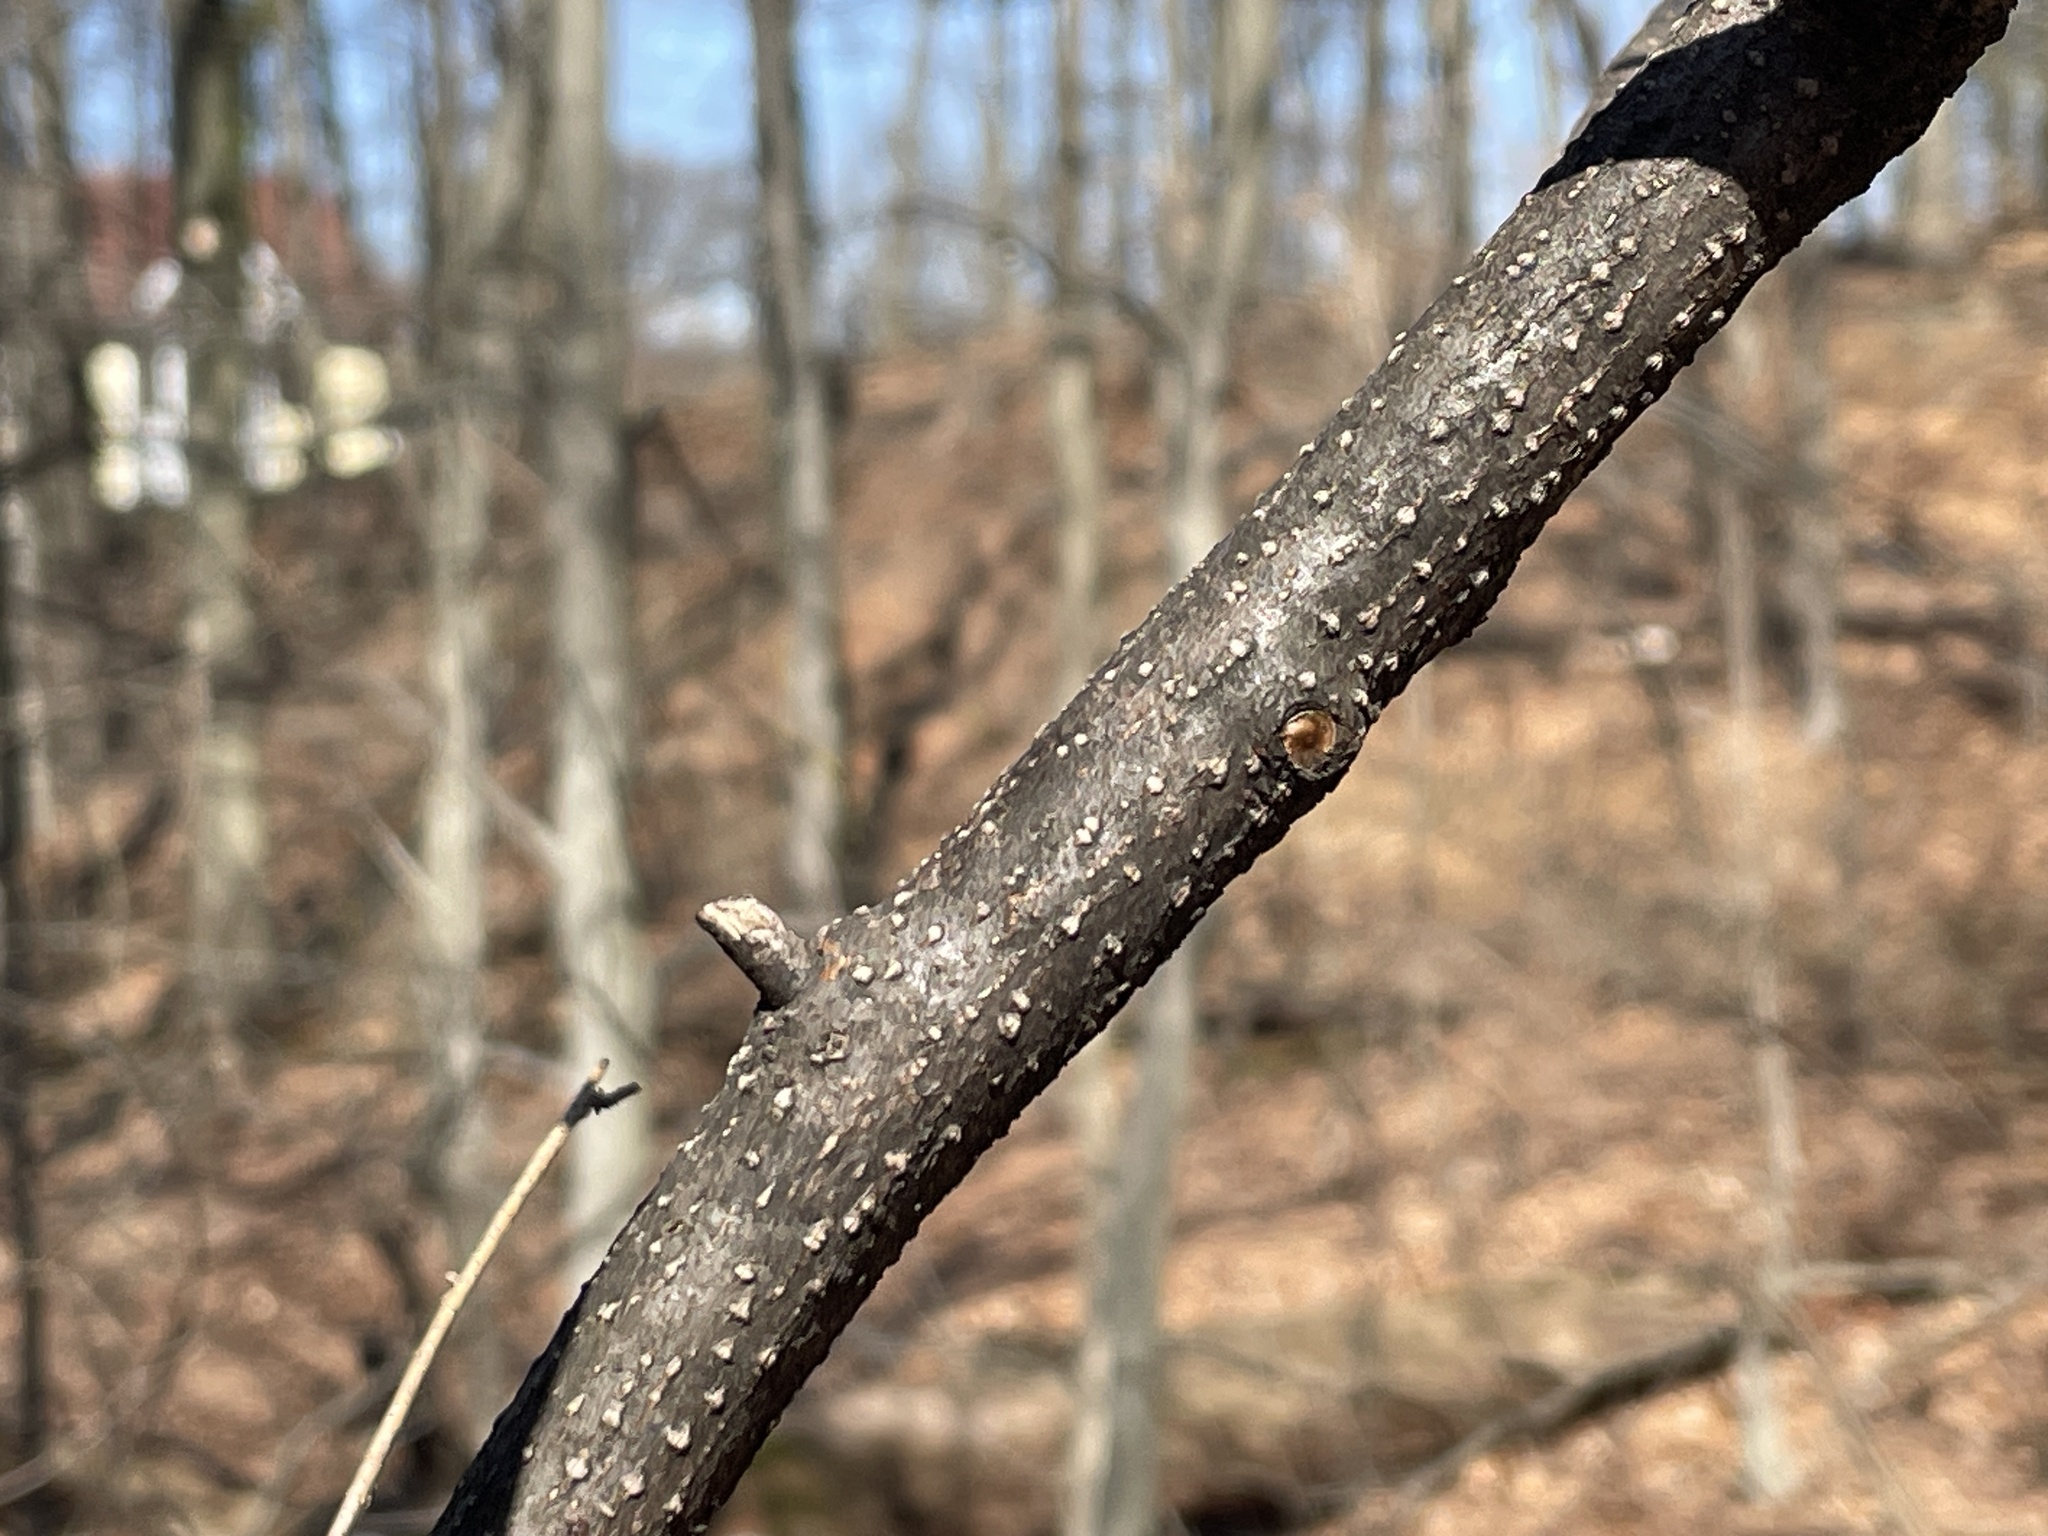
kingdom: Plantae
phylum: Tracheophyta
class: Magnoliopsida
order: Laurales
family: Lauraceae
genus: Lindera
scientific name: Lindera benzoin
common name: Spicebush
